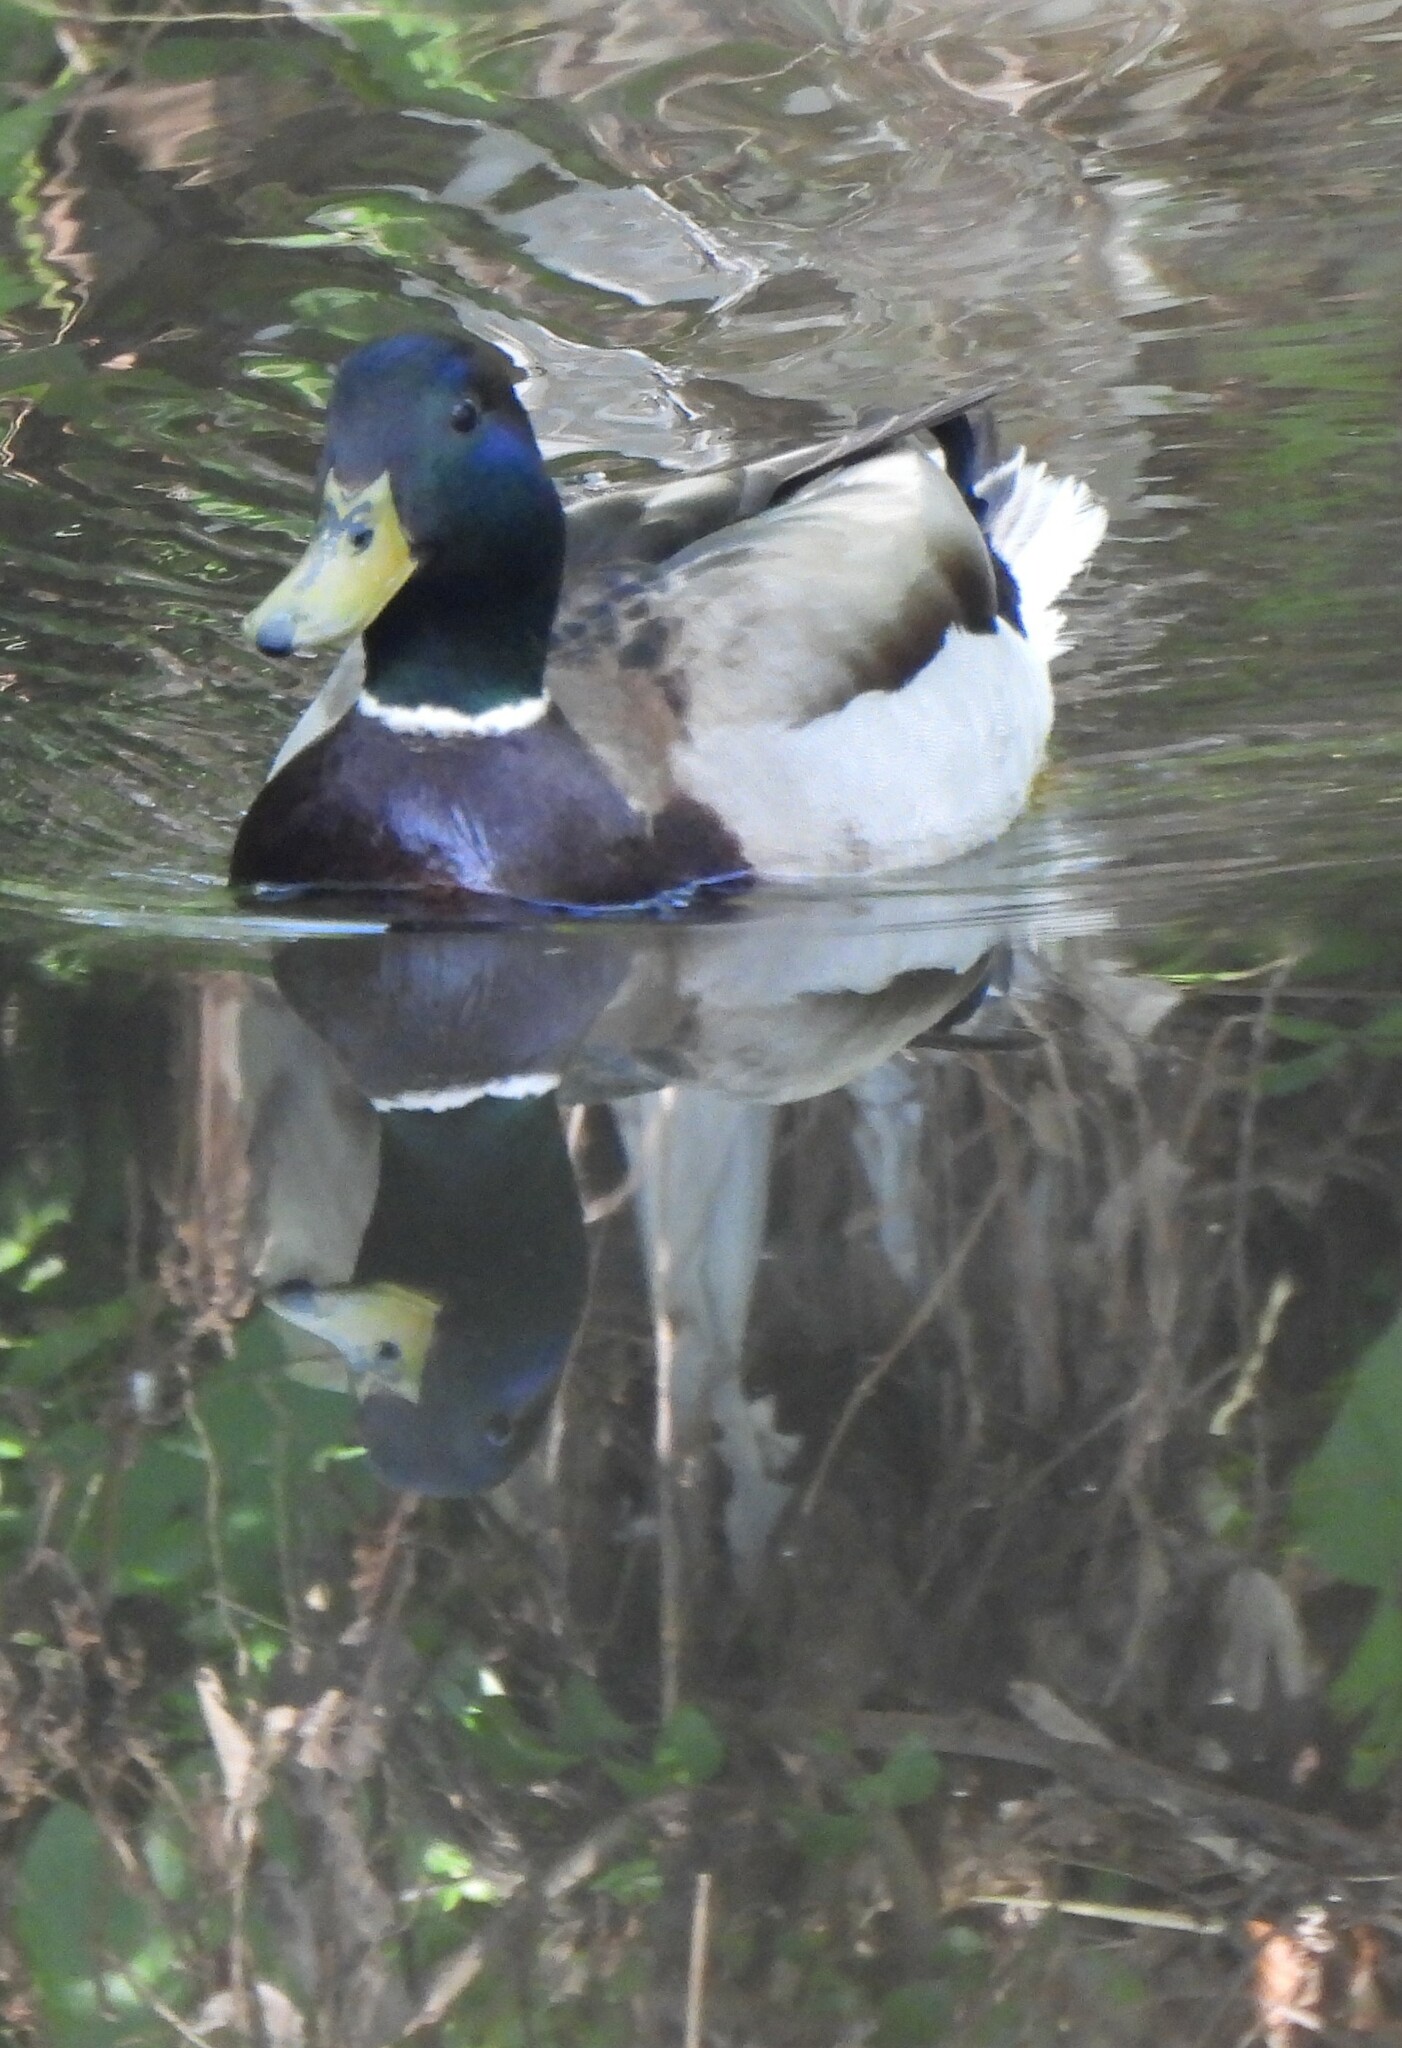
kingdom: Animalia
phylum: Chordata
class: Aves
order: Anseriformes
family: Anatidae
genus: Anas
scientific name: Anas platyrhynchos
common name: Mallard
